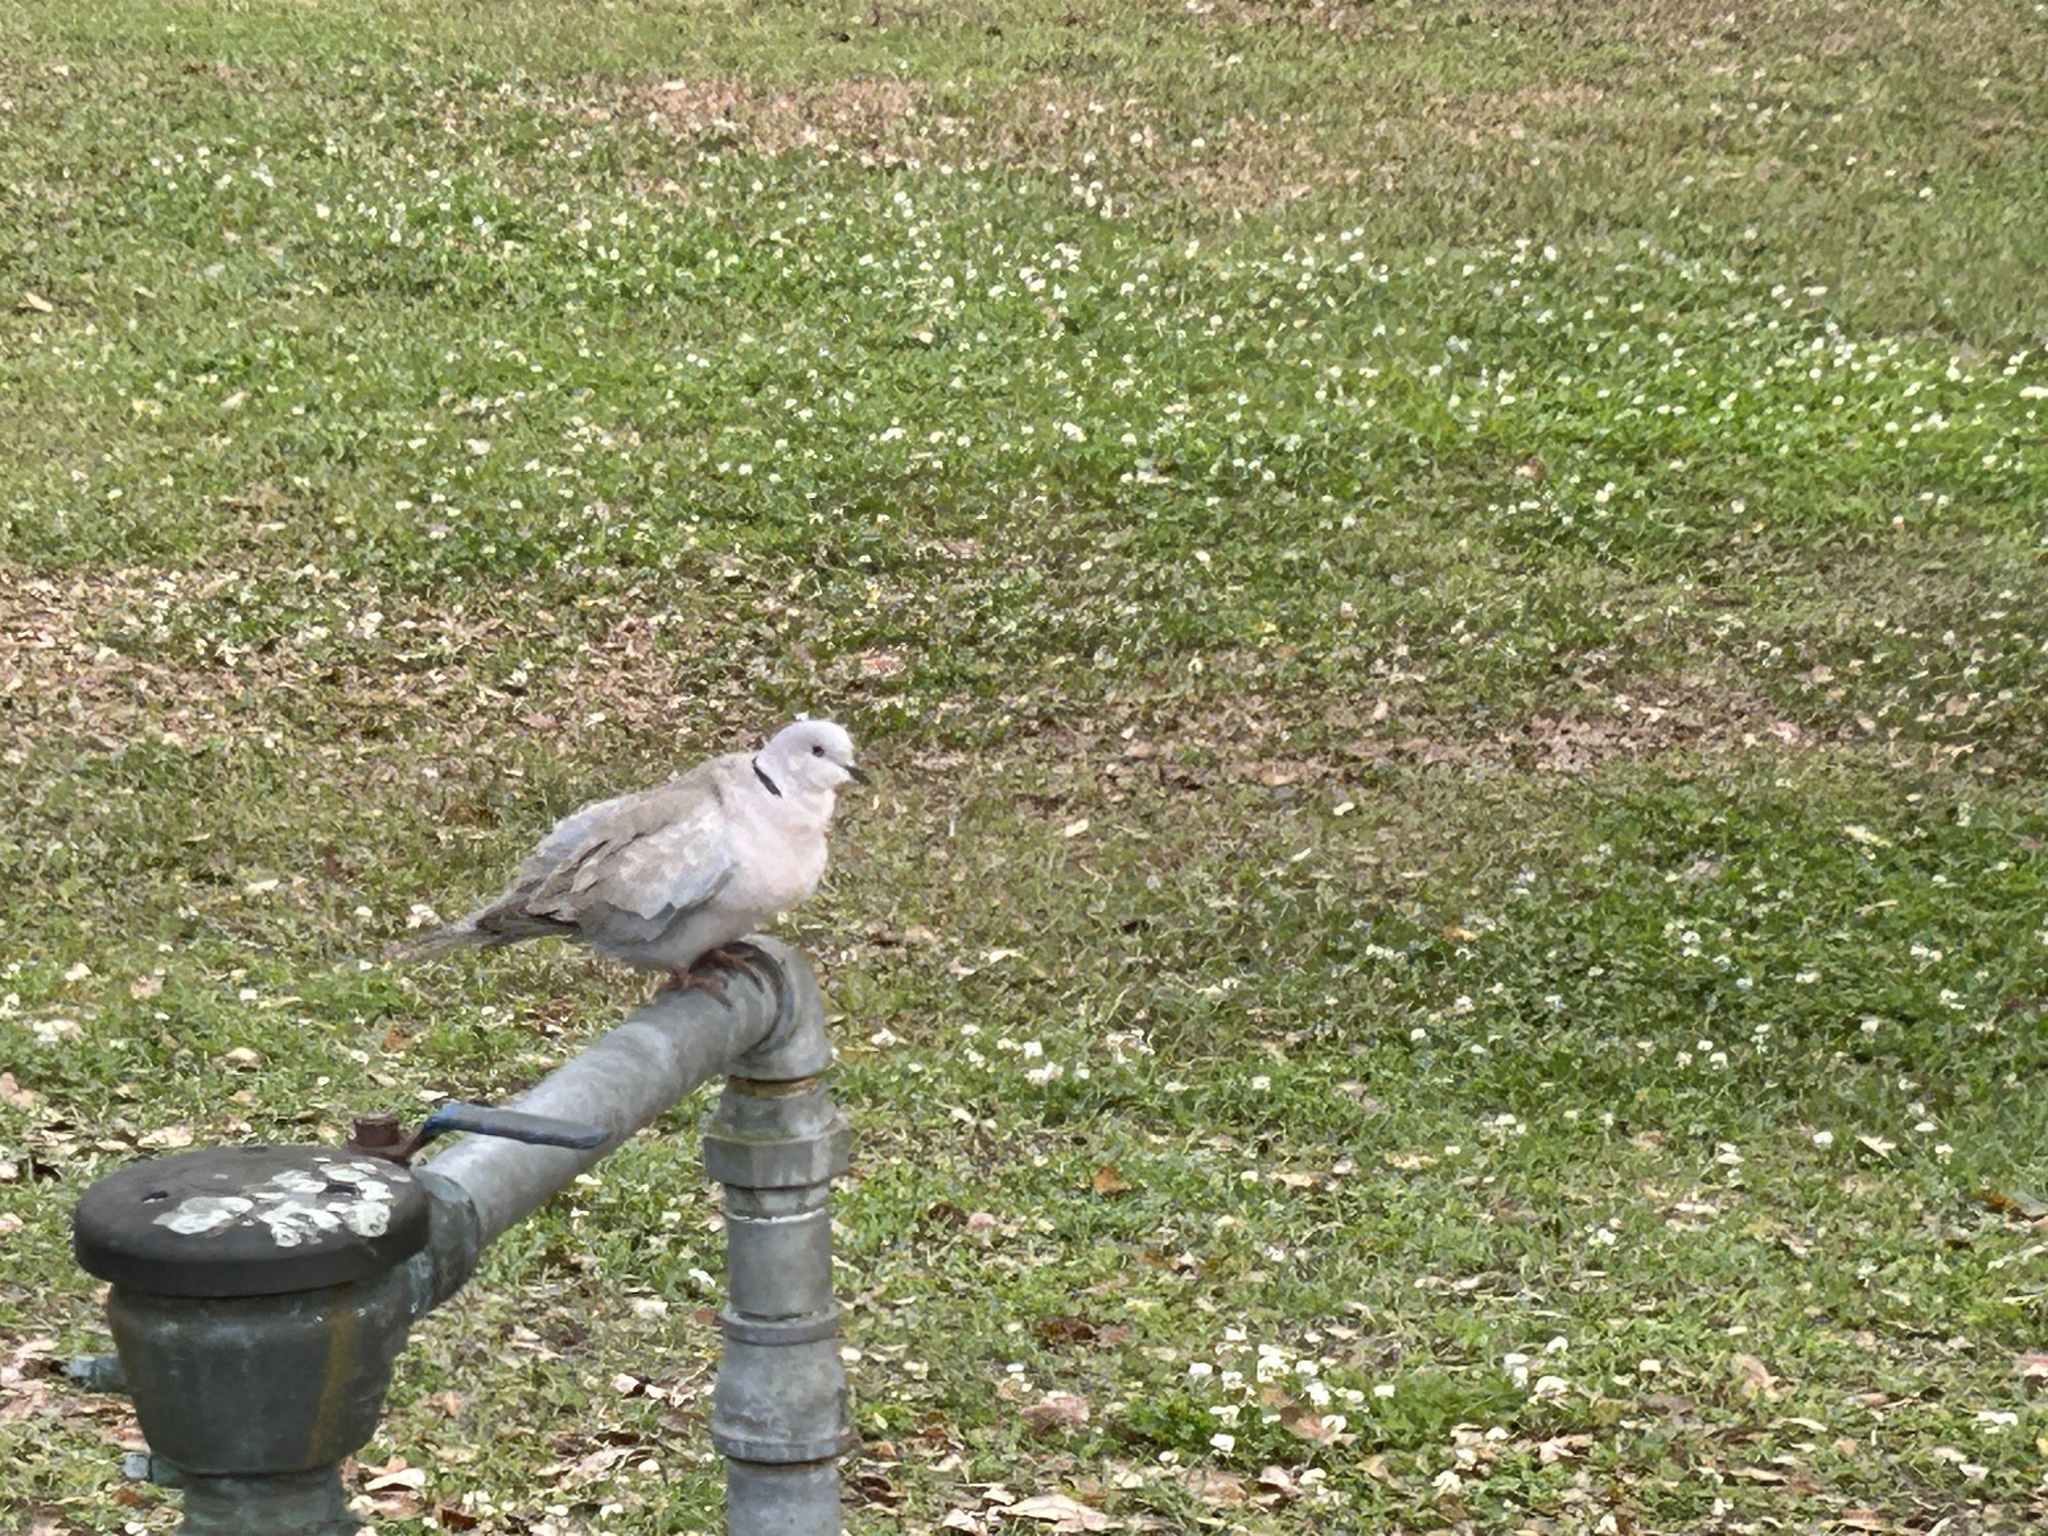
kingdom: Animalia
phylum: Chordata
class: Aves
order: Columbiformes
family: Columbidae
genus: Streptopelia
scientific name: Streptopelia decaocto
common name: Eurasian collared dove
